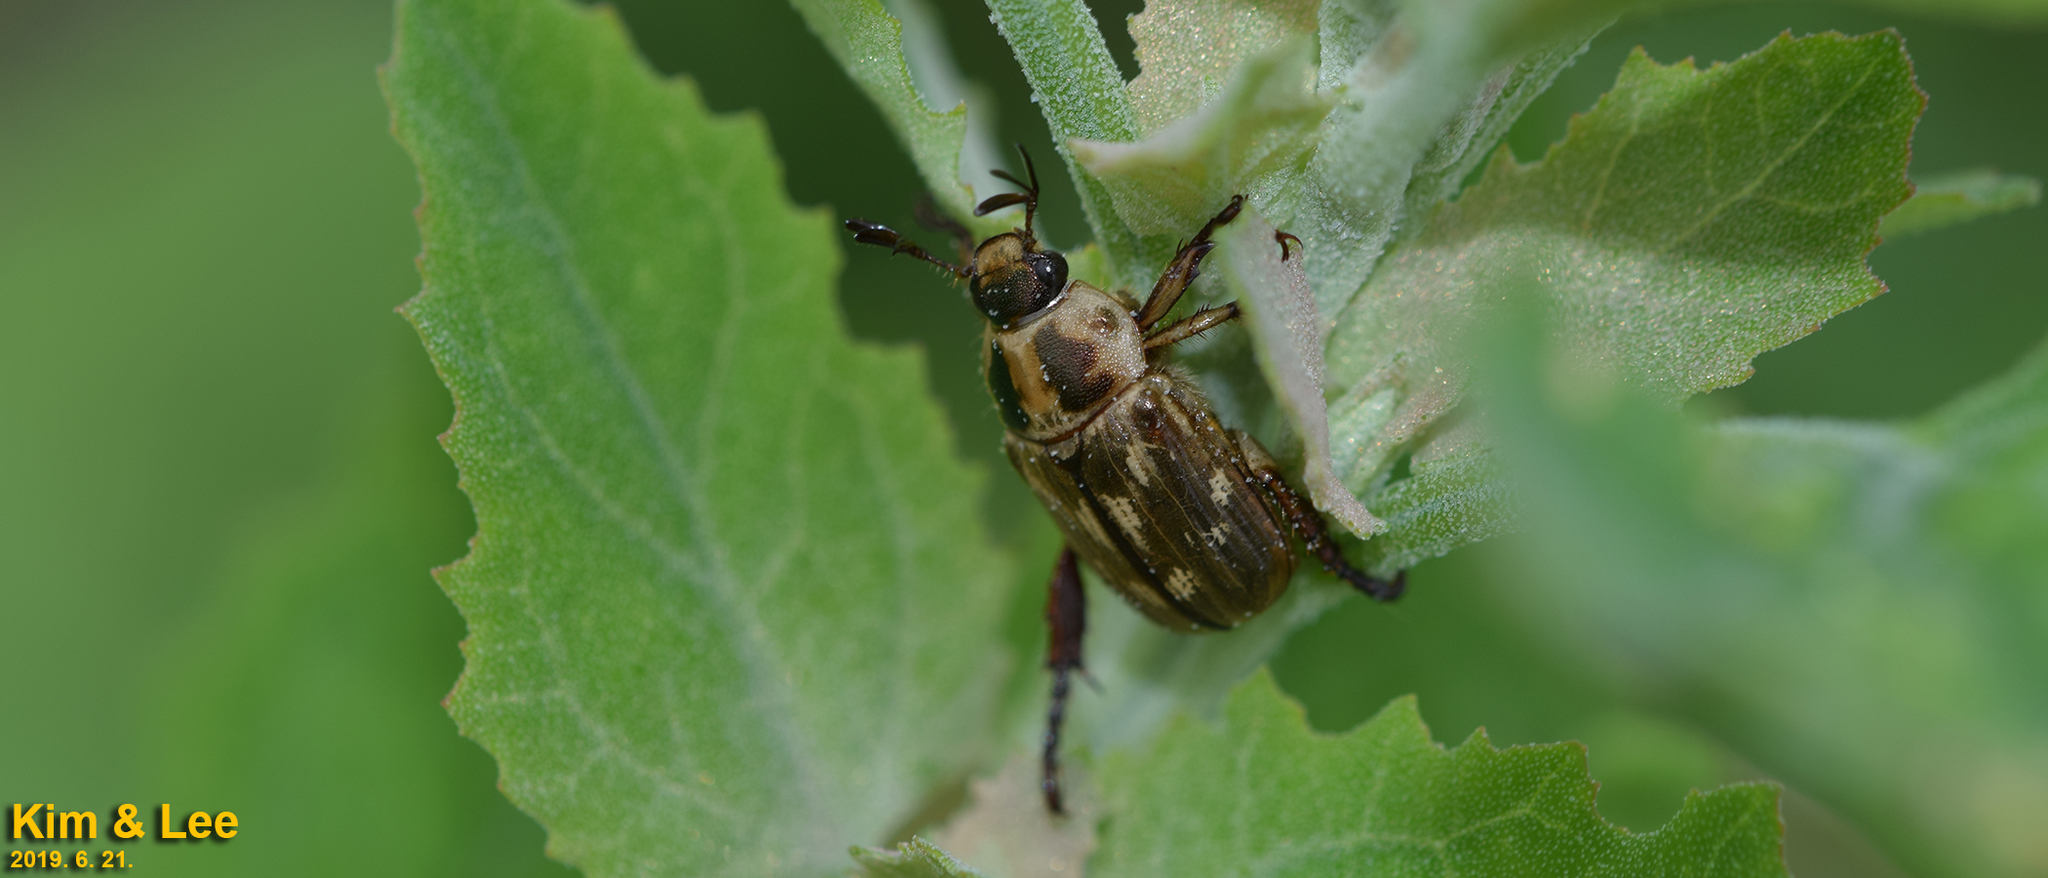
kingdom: Animalia
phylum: Arthropoda
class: Insecta
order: Coleoptera
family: Scarabaeidae
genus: Exomala
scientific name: Exomala orientalis
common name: Oriental beetle
